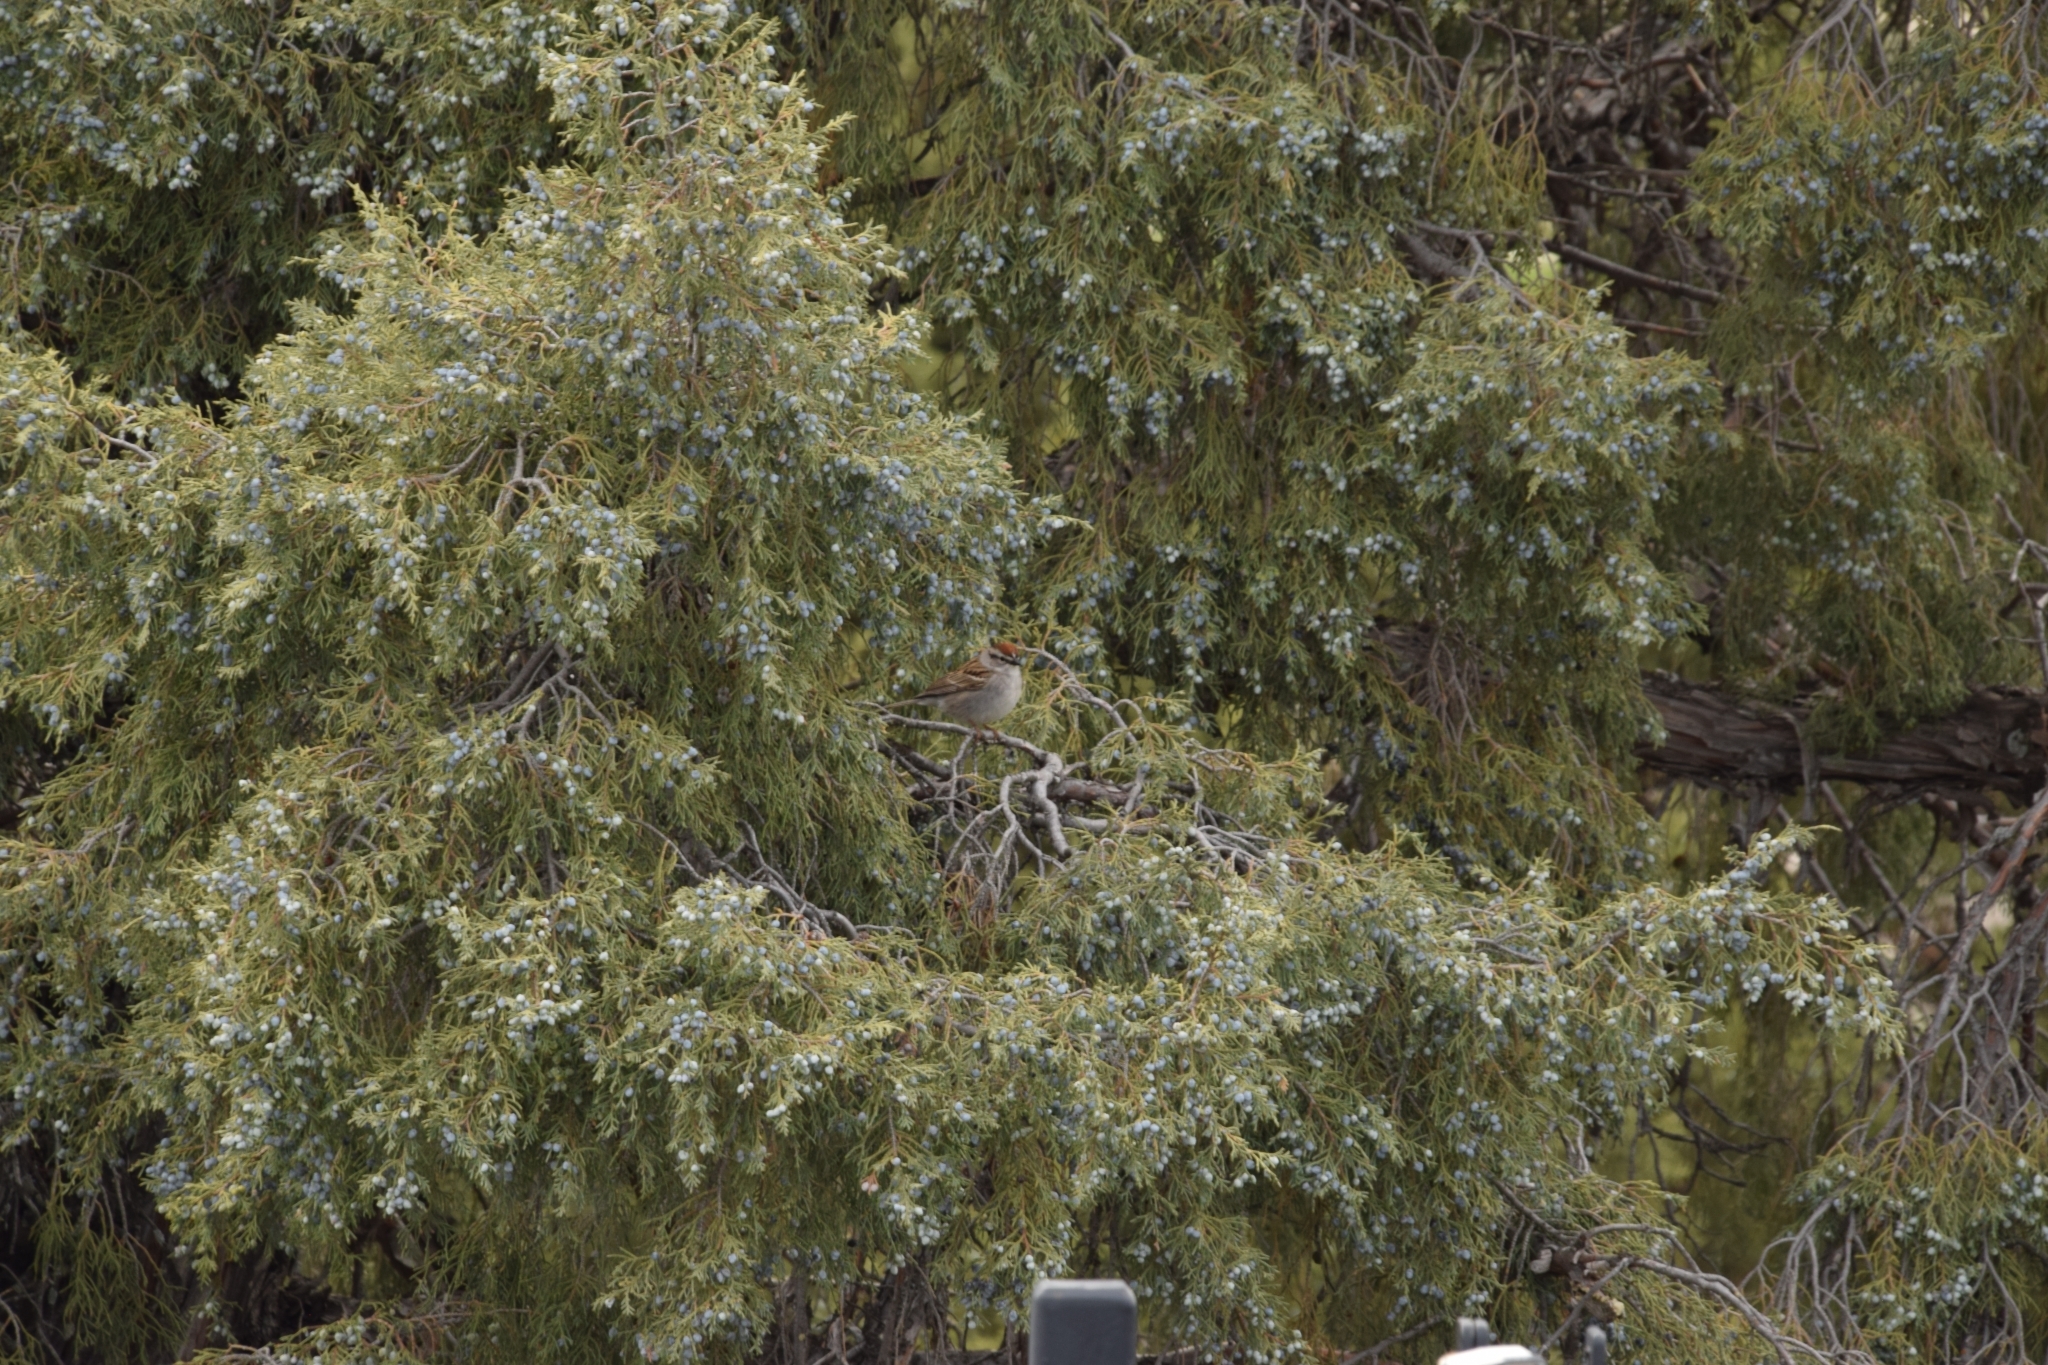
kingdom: Animalia
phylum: Chordata
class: Aves
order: Passeriformes
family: Passerellidae
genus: Spizella
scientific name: Spizella passerina
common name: Chipping sparrow
